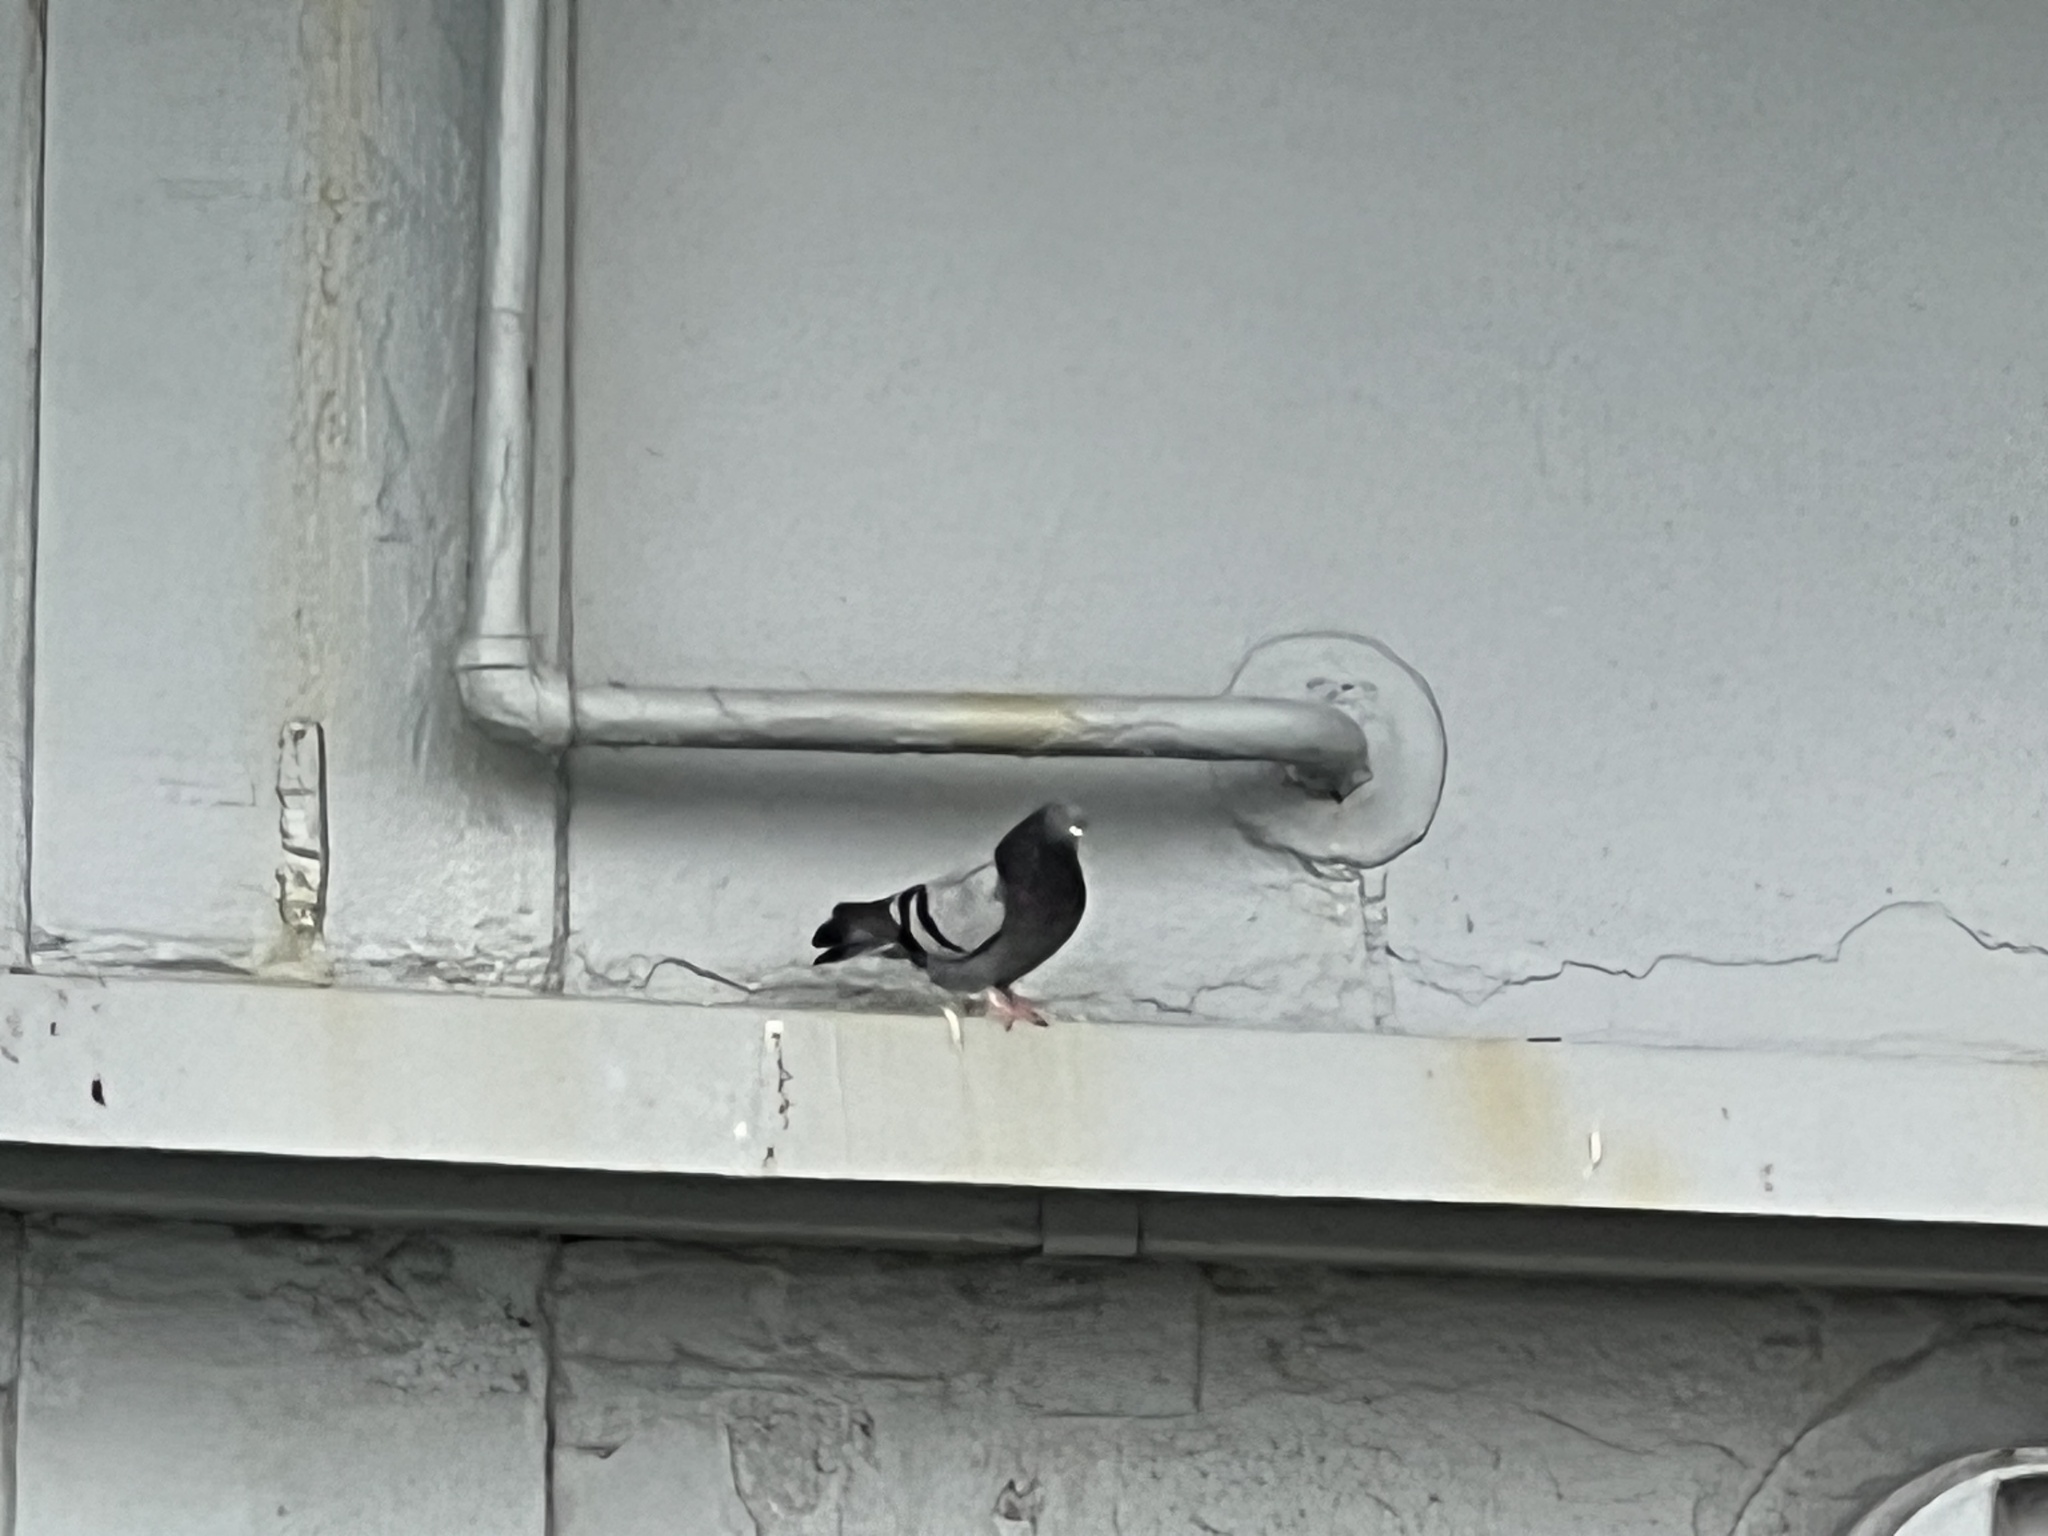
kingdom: Animalia
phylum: Chordata
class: Aves
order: Columbiformes
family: Columbidae
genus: Columba
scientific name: Columba livia
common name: Rock pigeon
